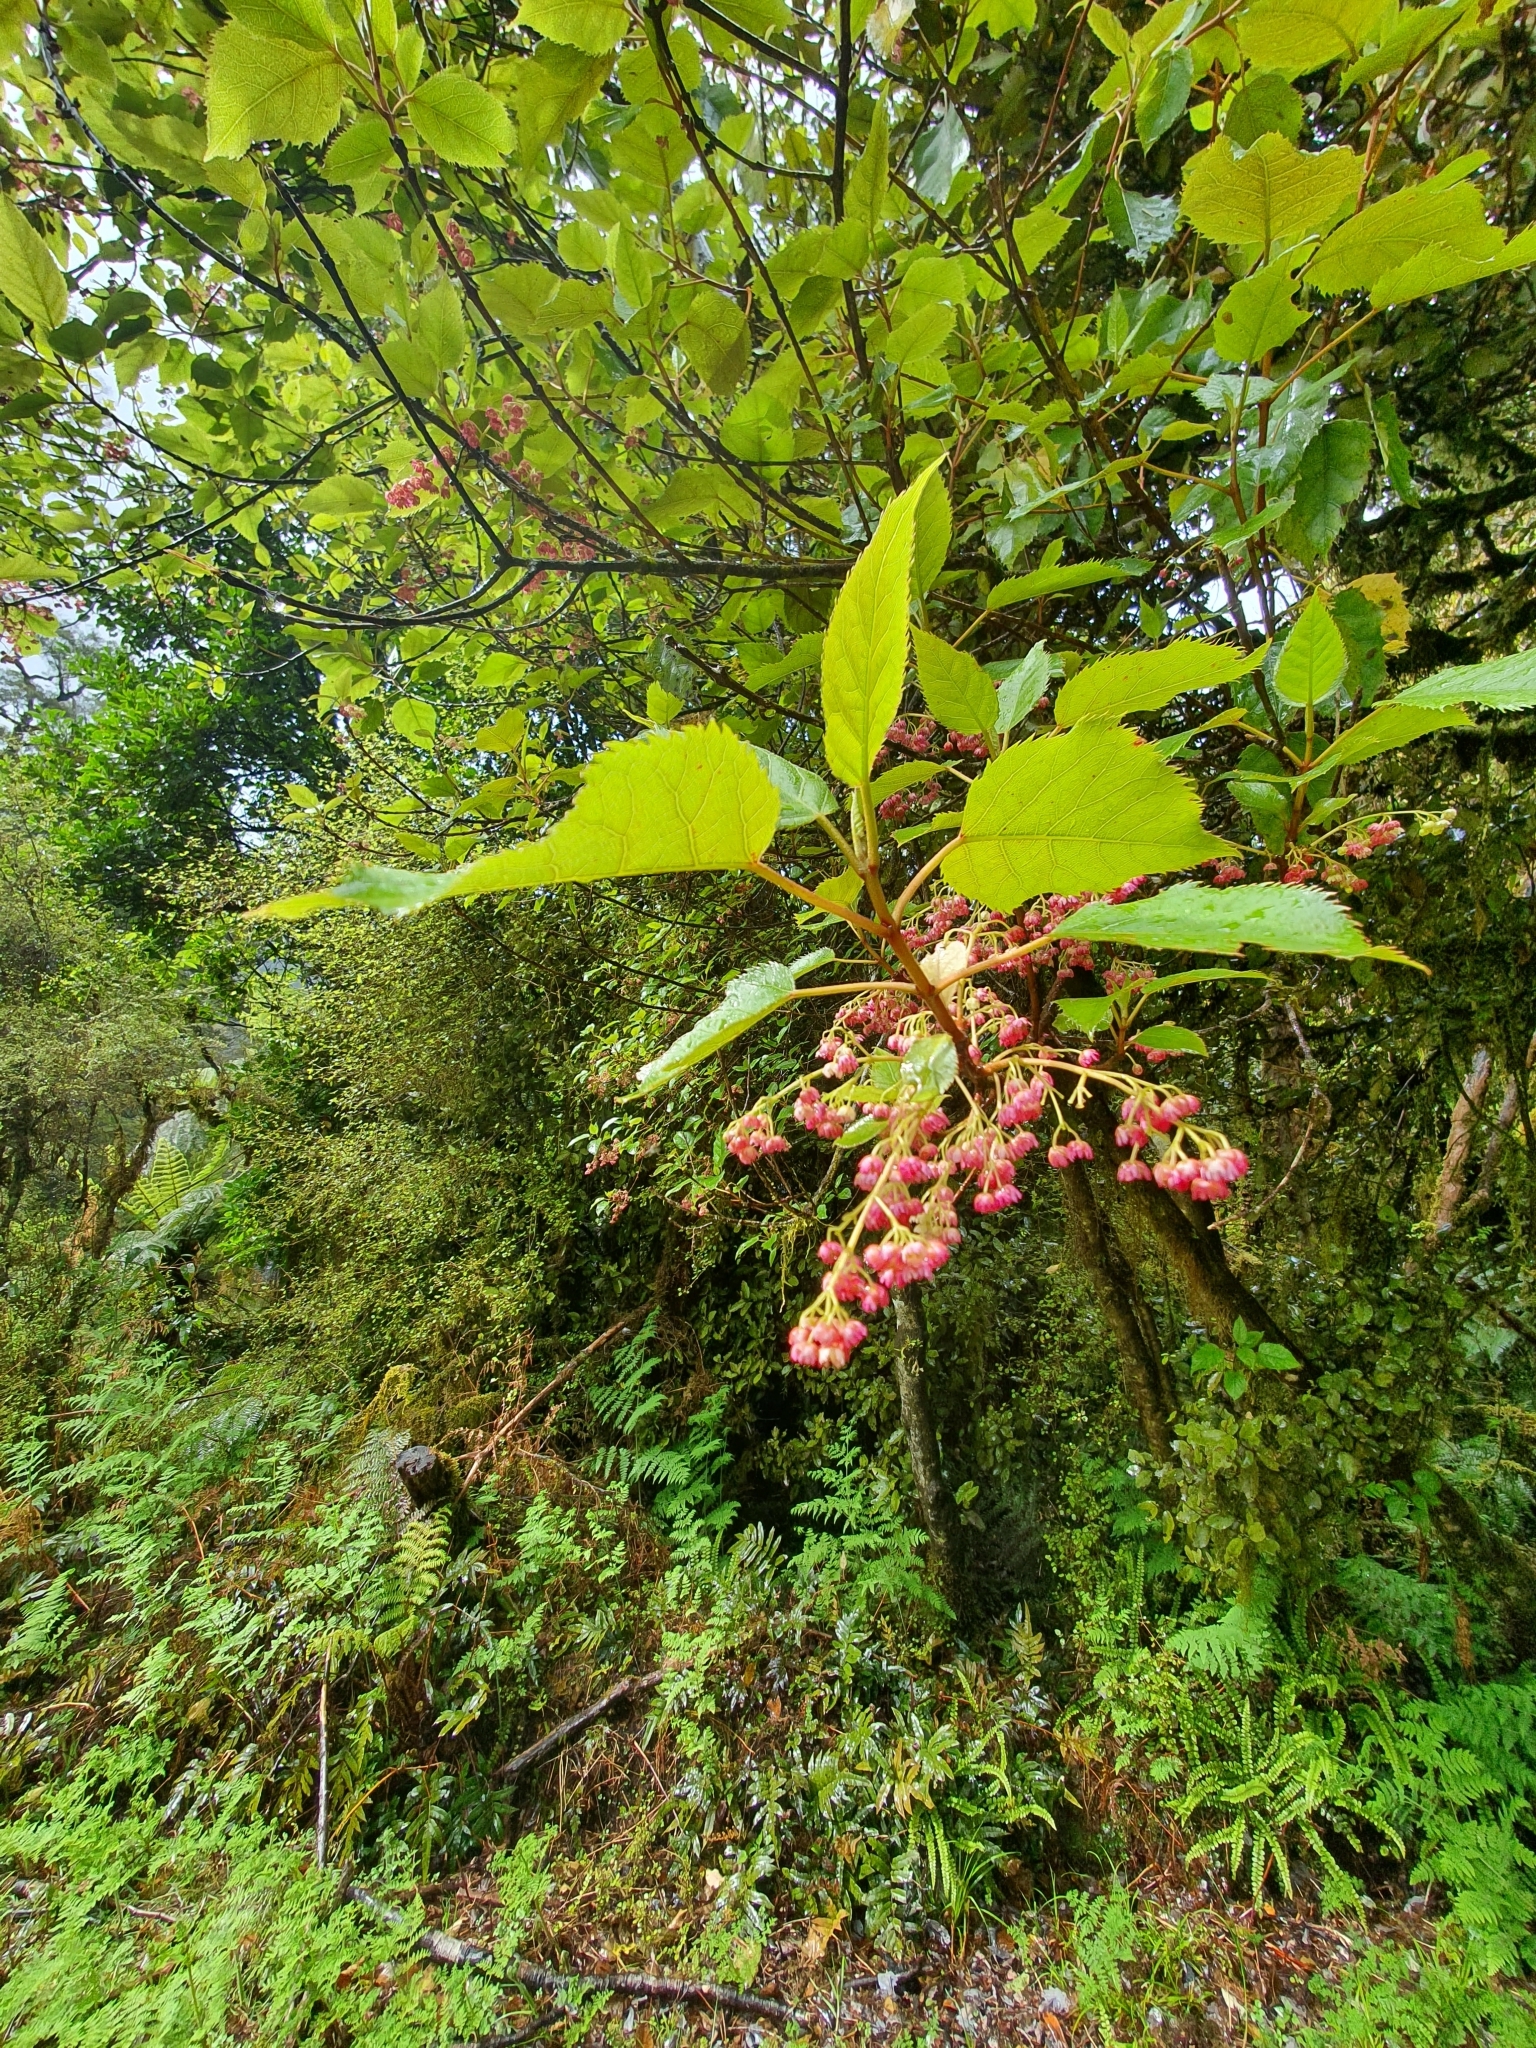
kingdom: Plantae
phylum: Tracheophyta
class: Magnoliopsida
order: Oxalidales
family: Elaeocarpaceae
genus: Aristotelia
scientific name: Aristotelia serrata
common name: New zealand wineberry
